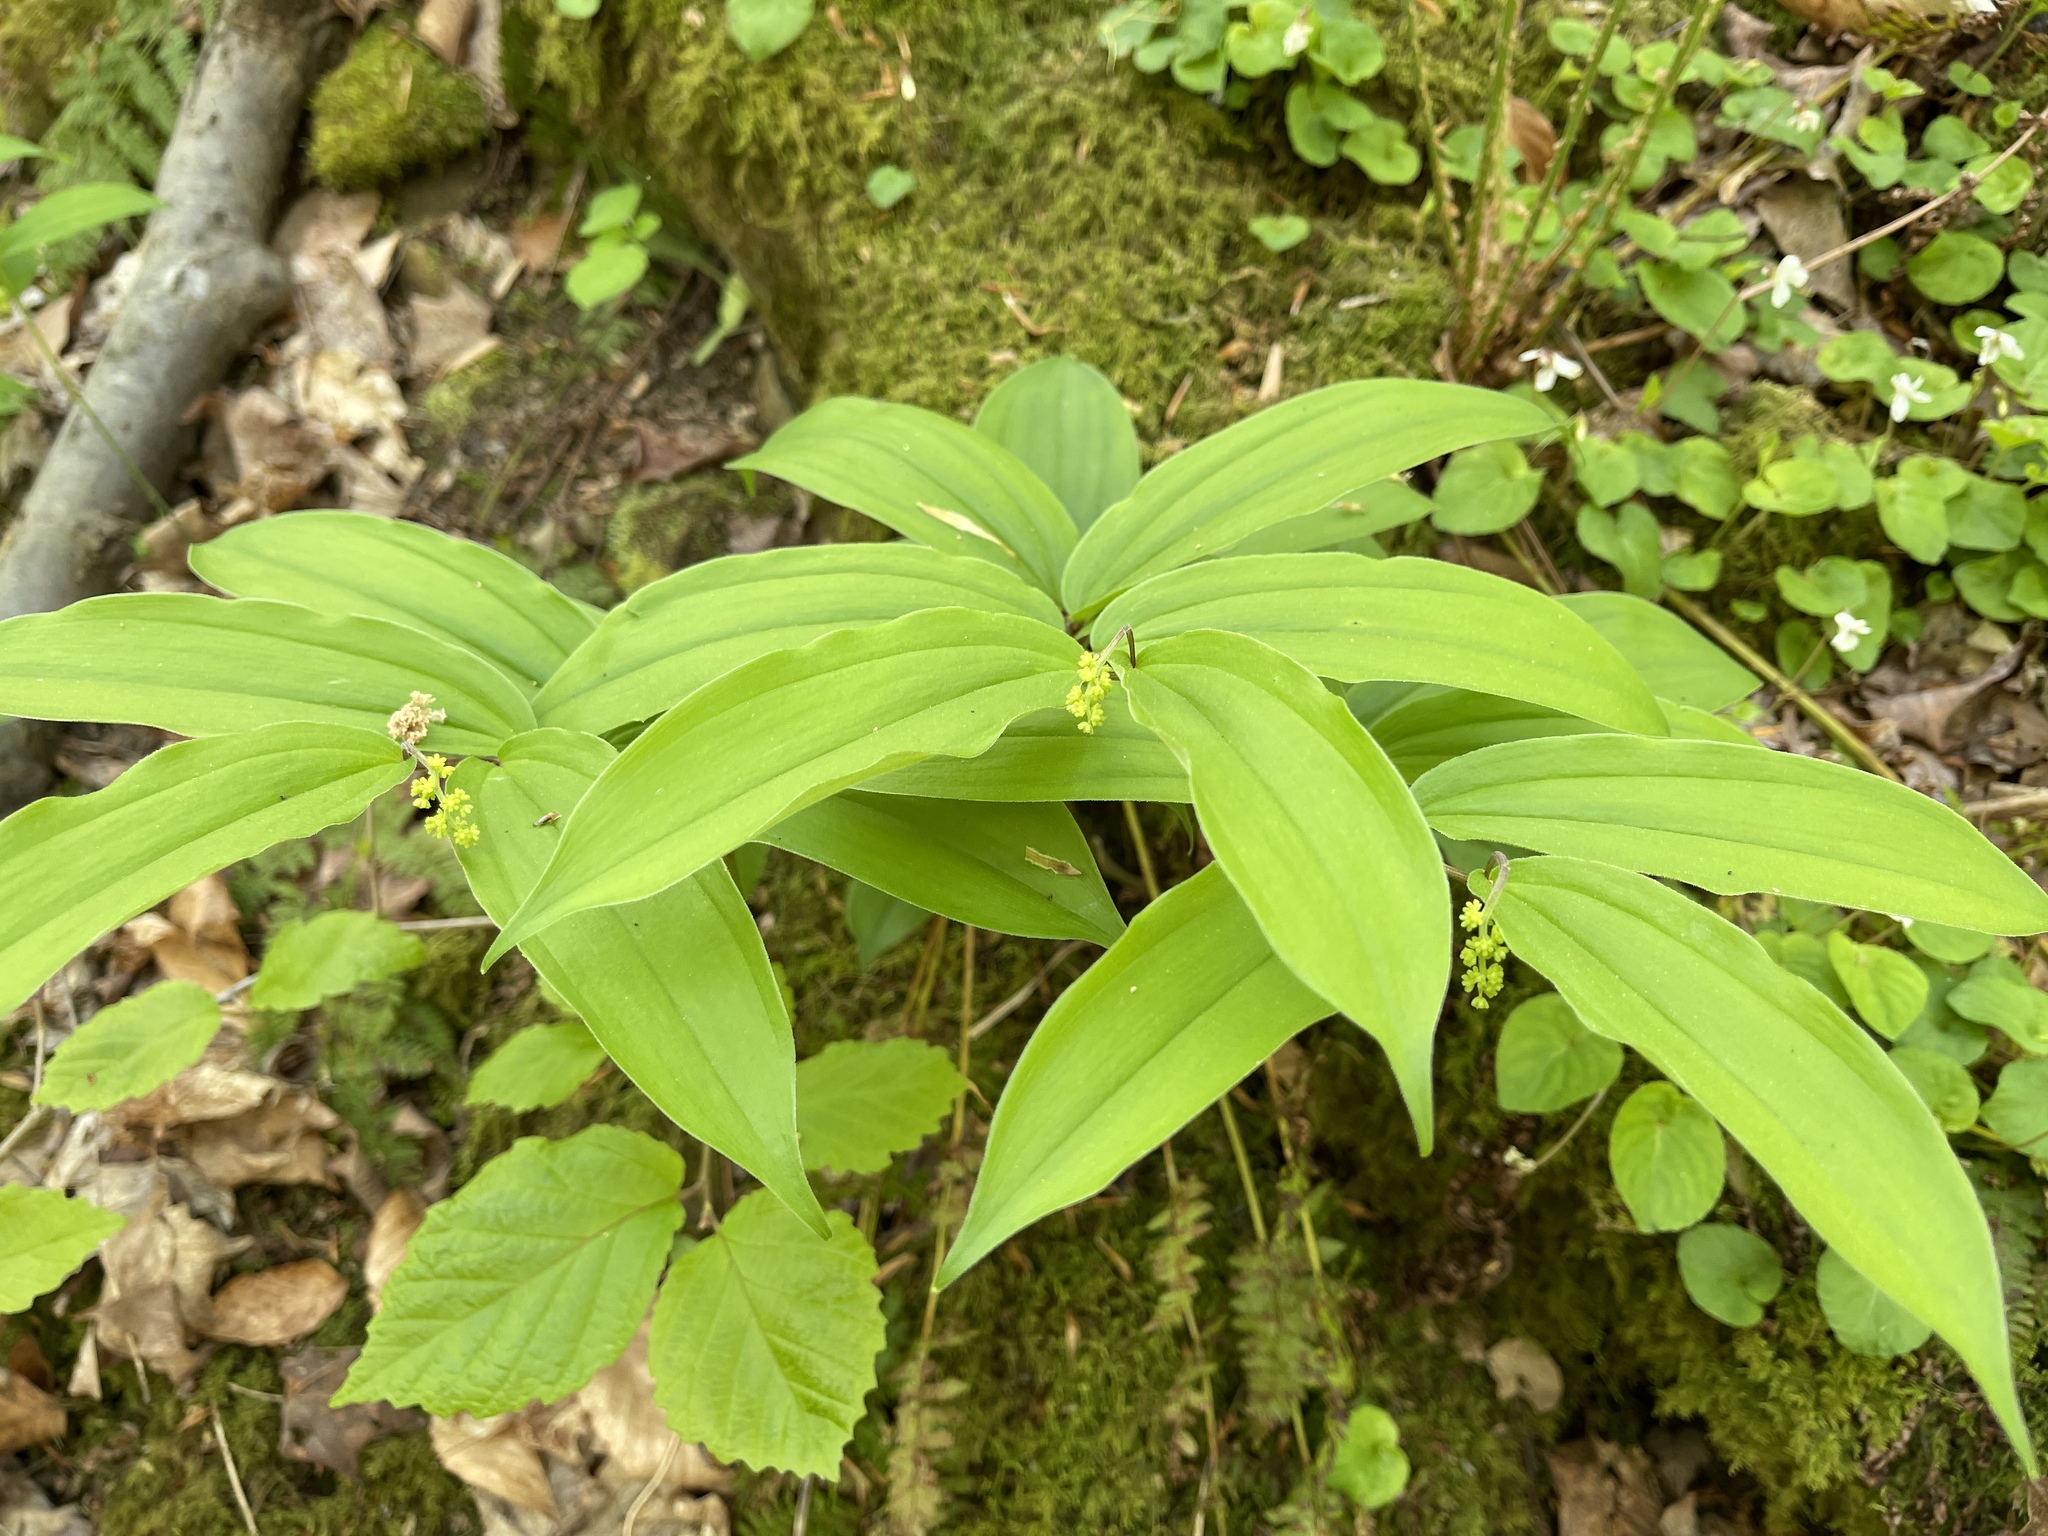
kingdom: Plantae
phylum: Tracheophyta
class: Liliopsida
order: Asparagales
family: Asparagaceae
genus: Maianthemum
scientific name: Maianthemum racemosum
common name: False spikenard
